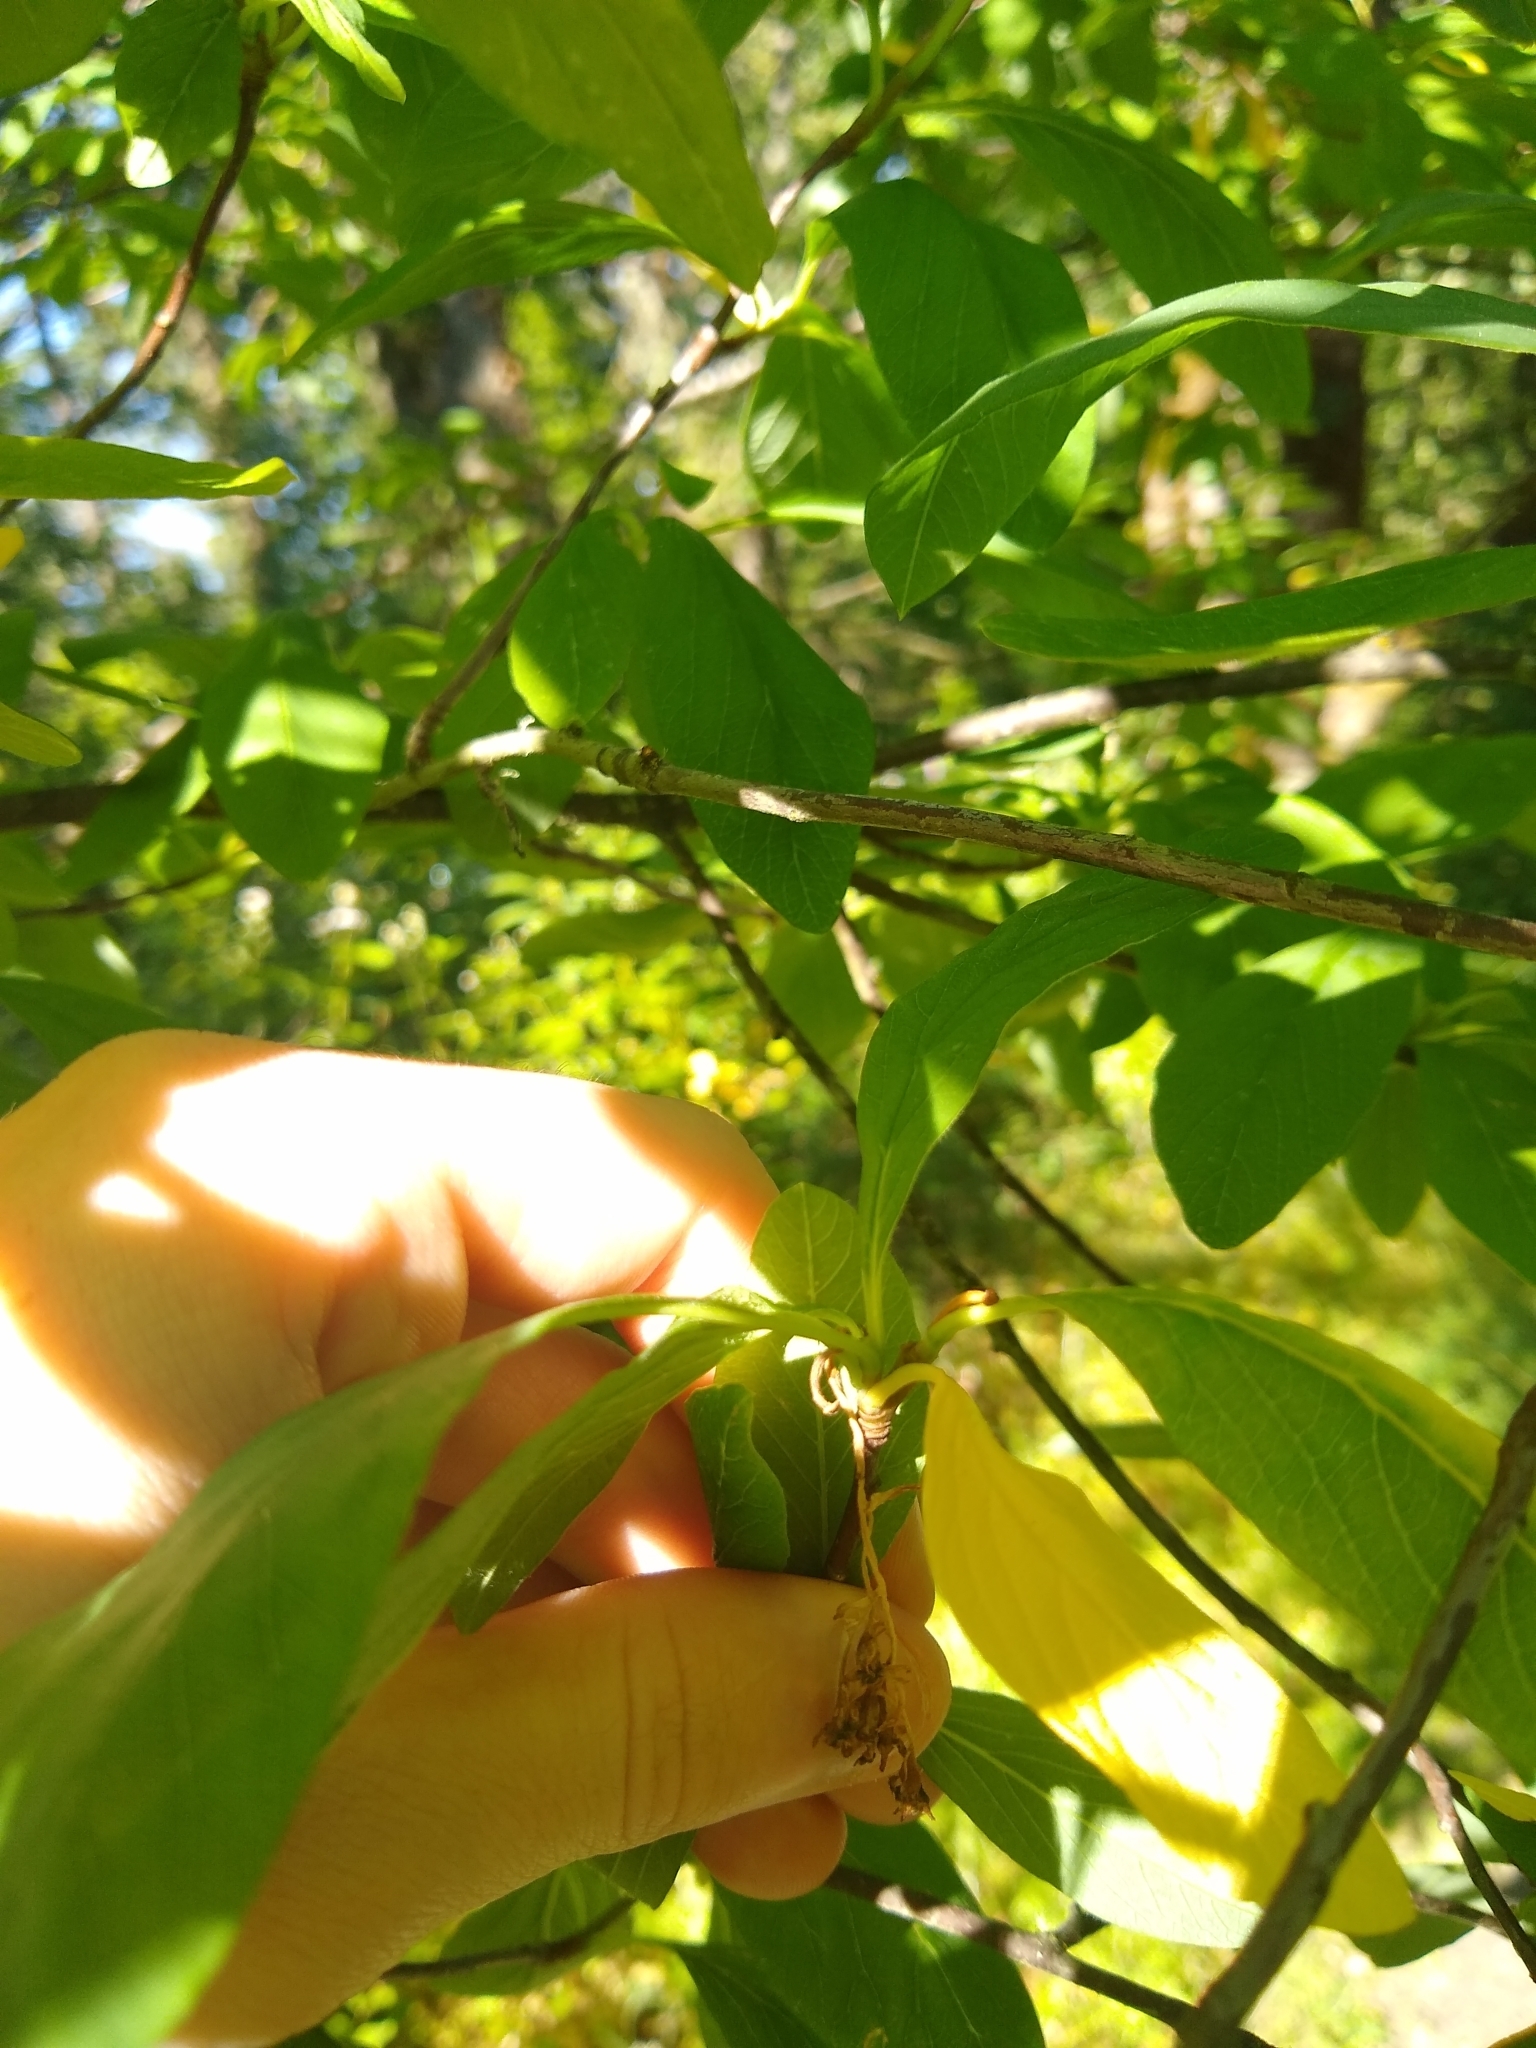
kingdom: Plantae
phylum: Tracheophyta
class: Magnoliopsida
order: Rosales
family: Rosaceae
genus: Oemleria
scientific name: Oemleria cerasiformis
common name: Osoberry
